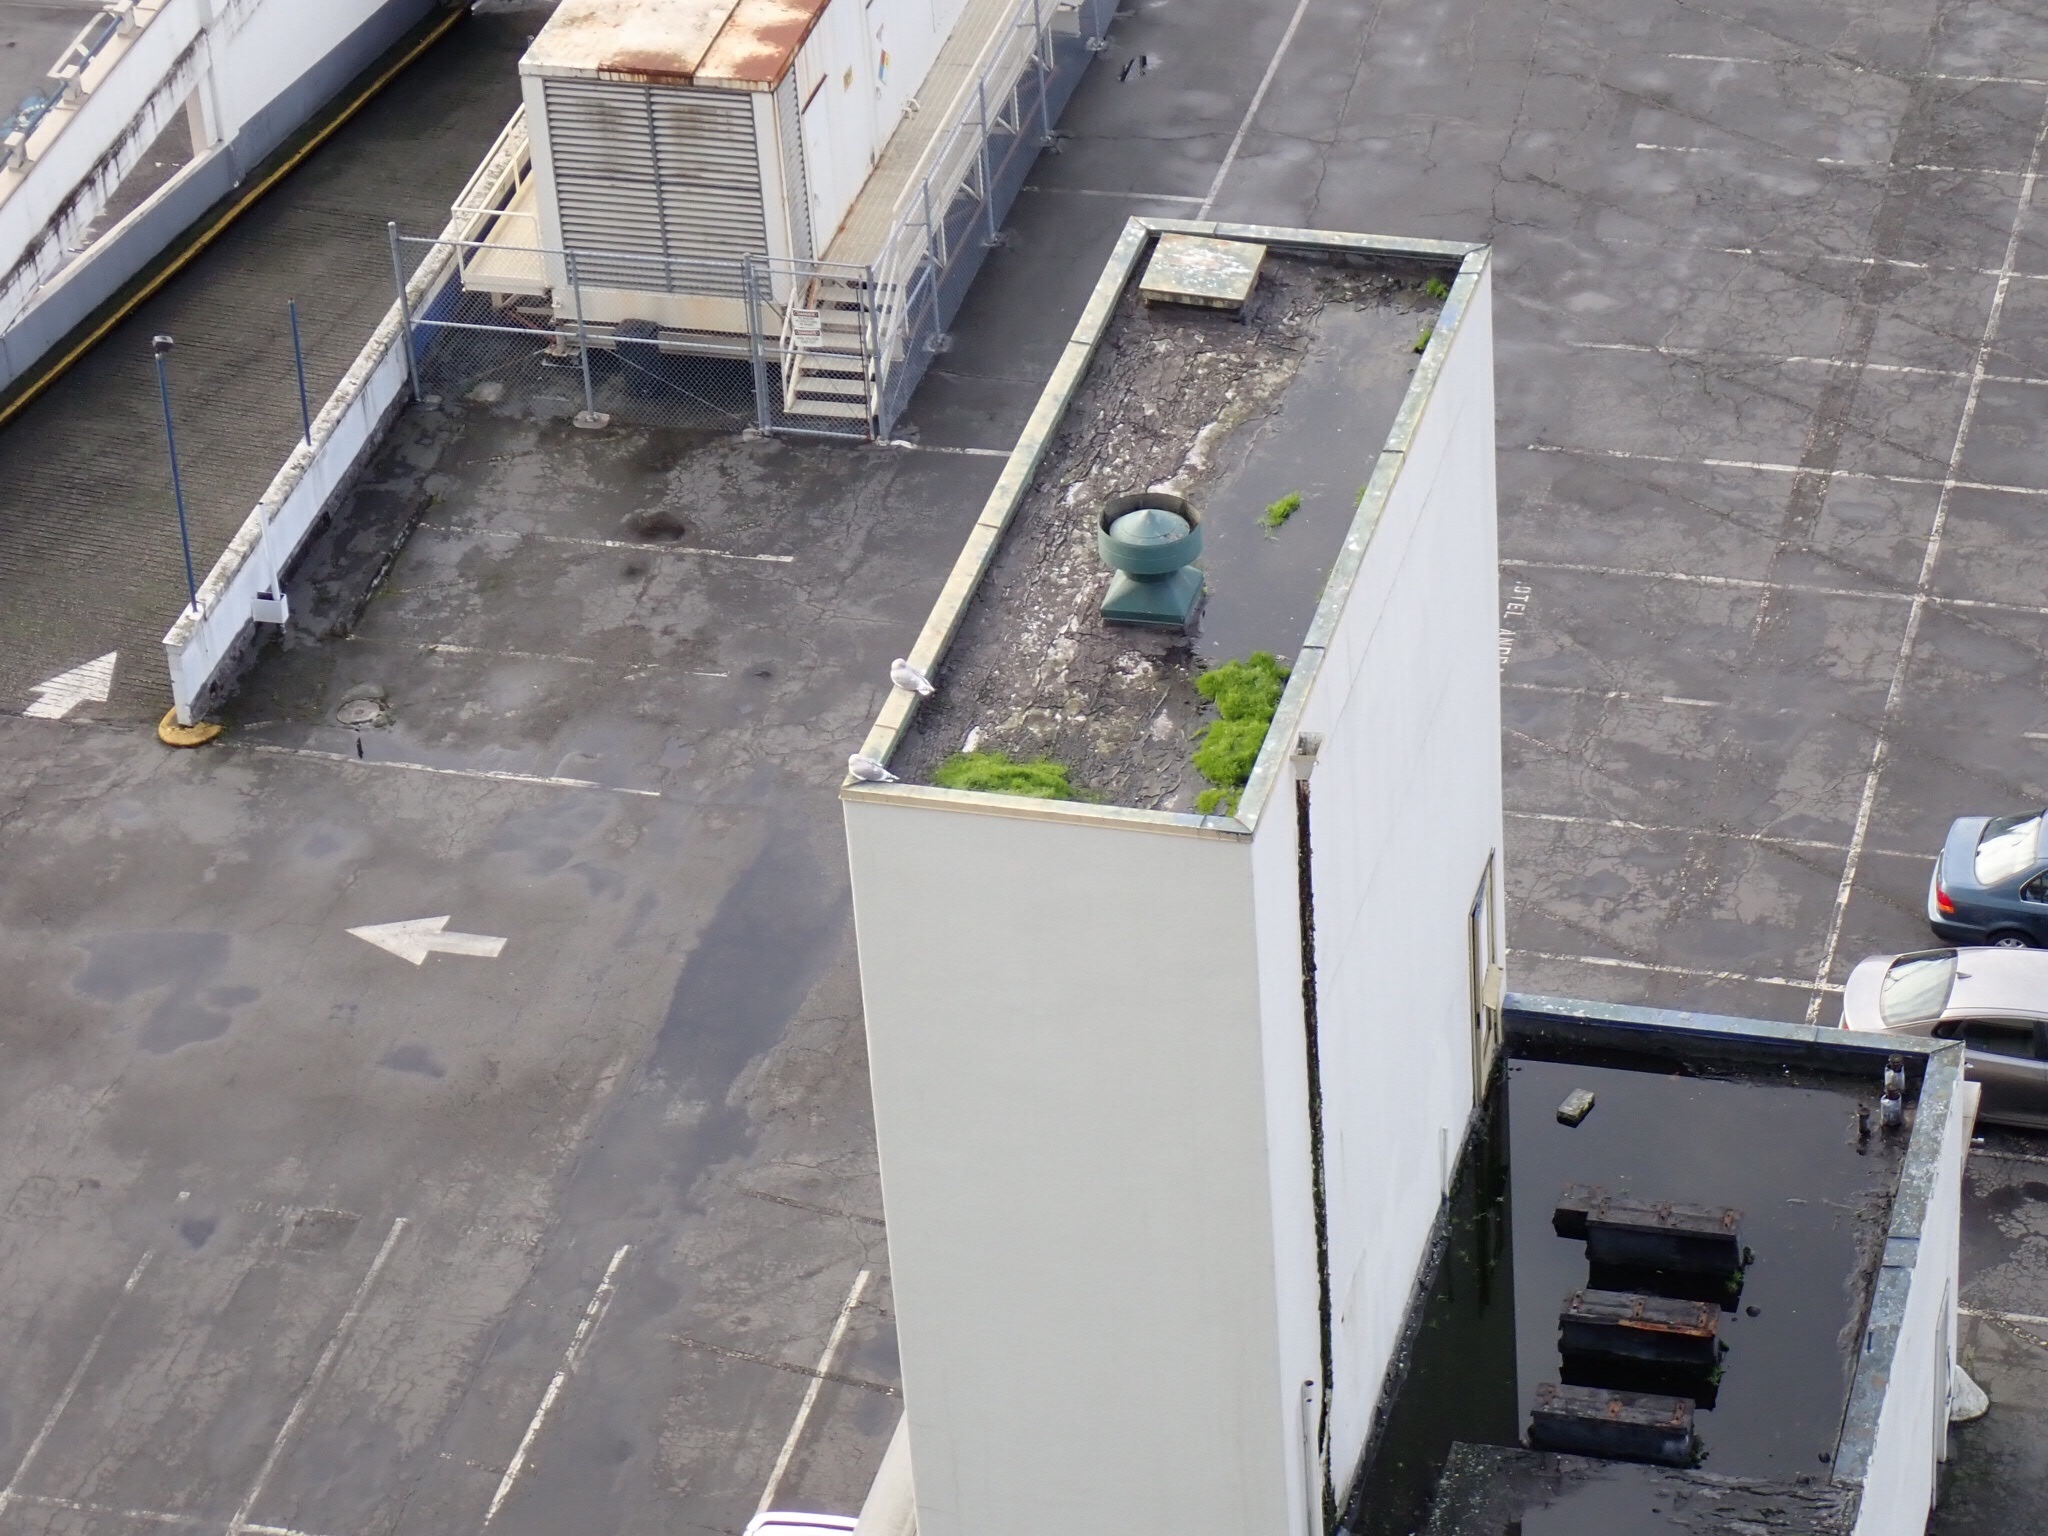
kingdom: Animalia
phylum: Chordata
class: Aves
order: Charadriiformes
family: Laridae
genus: Larus
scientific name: Larus
